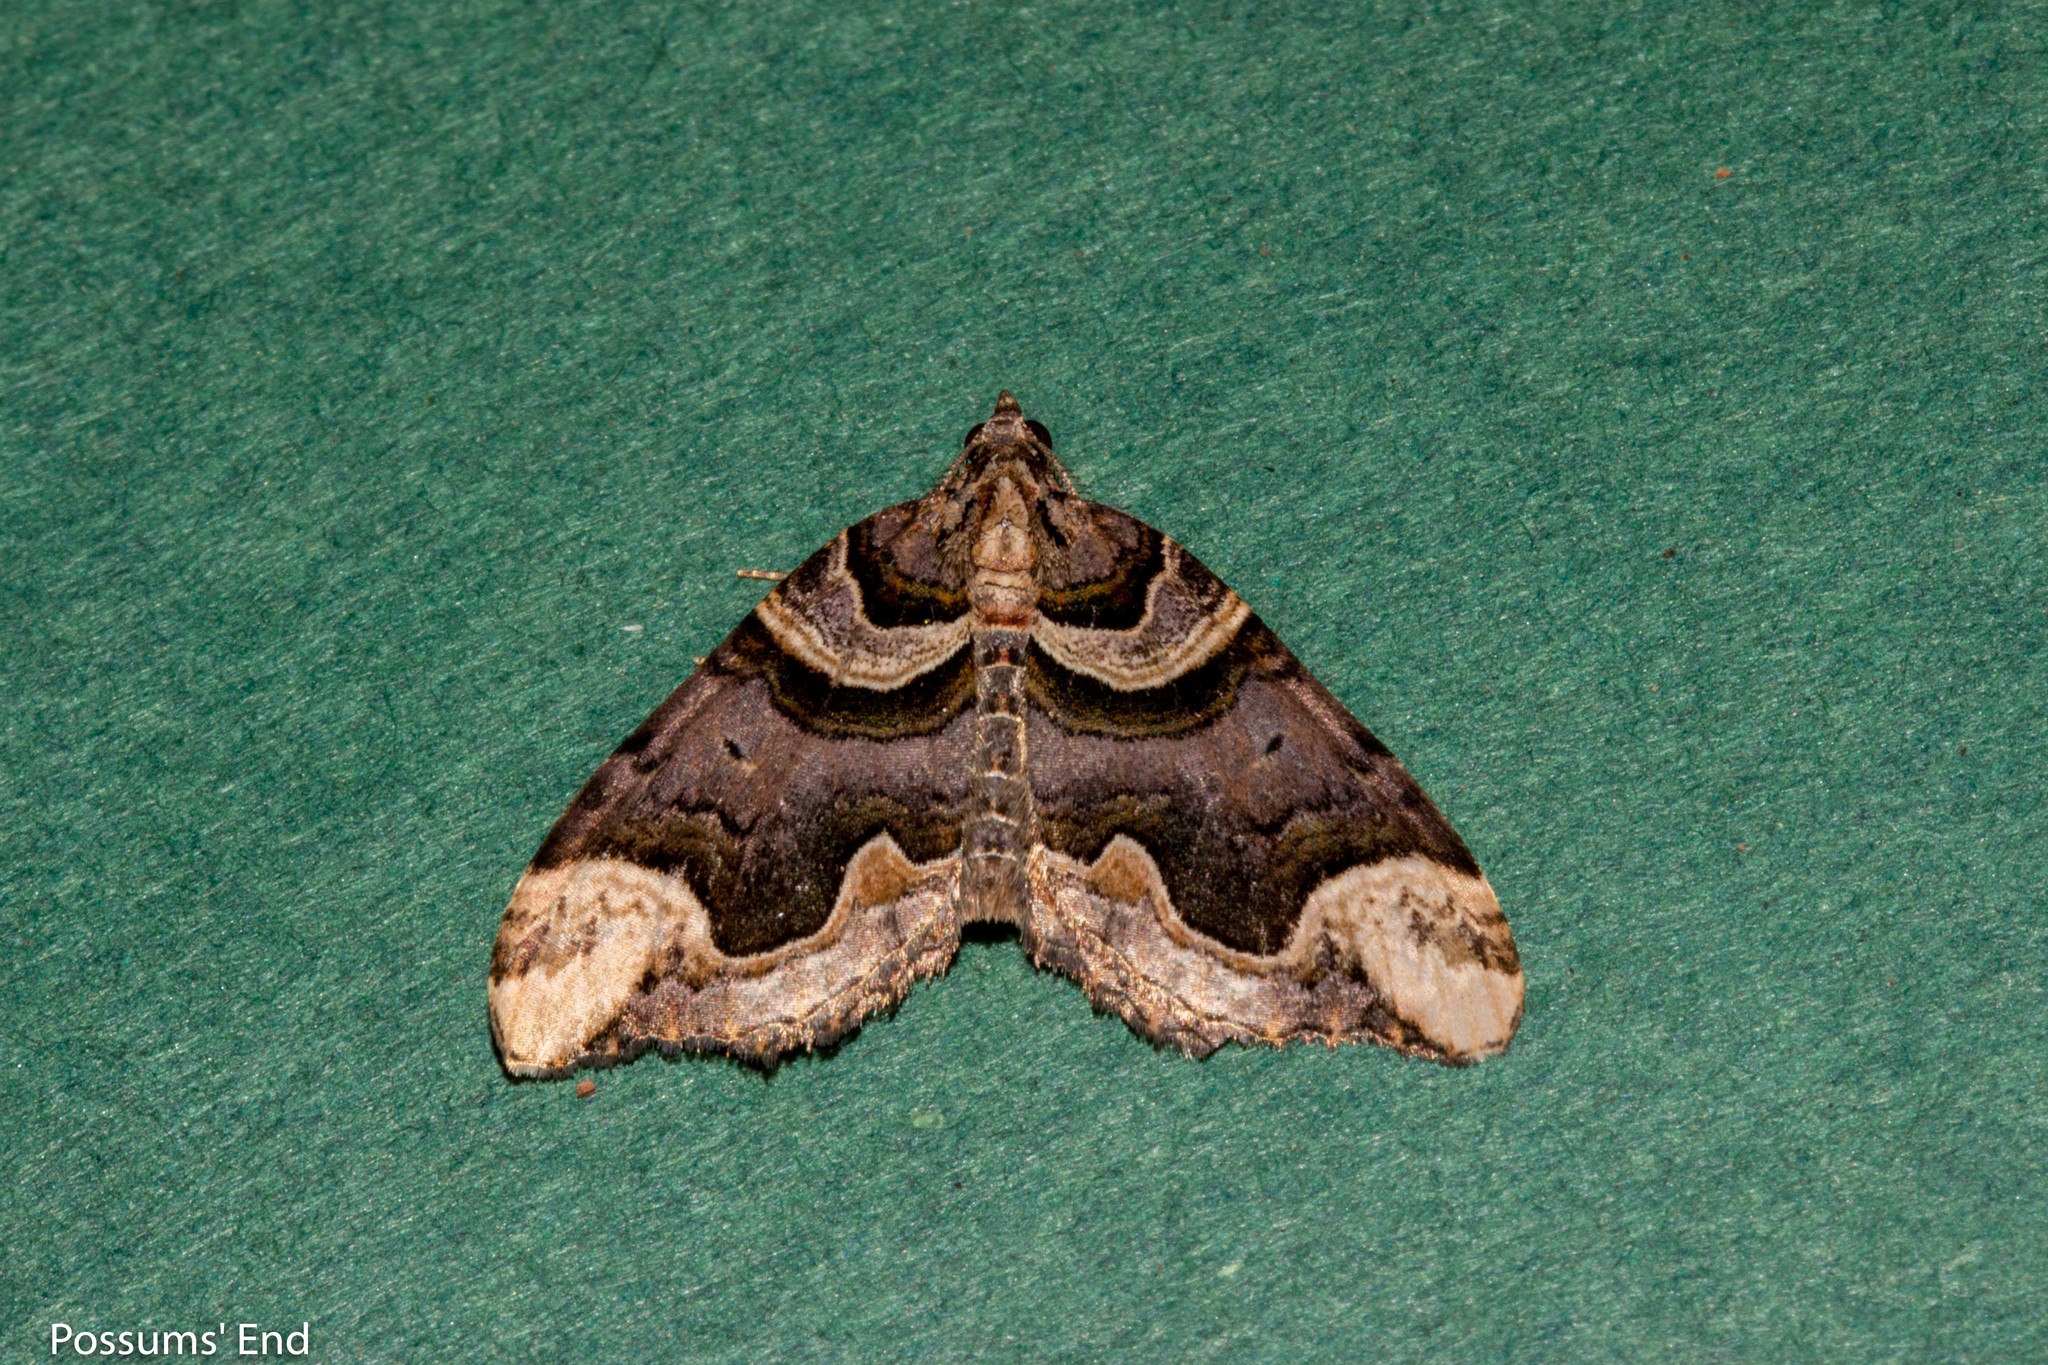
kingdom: Animalia
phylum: Arthropoda
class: Insecta
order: Lepidoptera
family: Geometridae
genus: Asaphodes
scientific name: Asaphodes chlamydota
